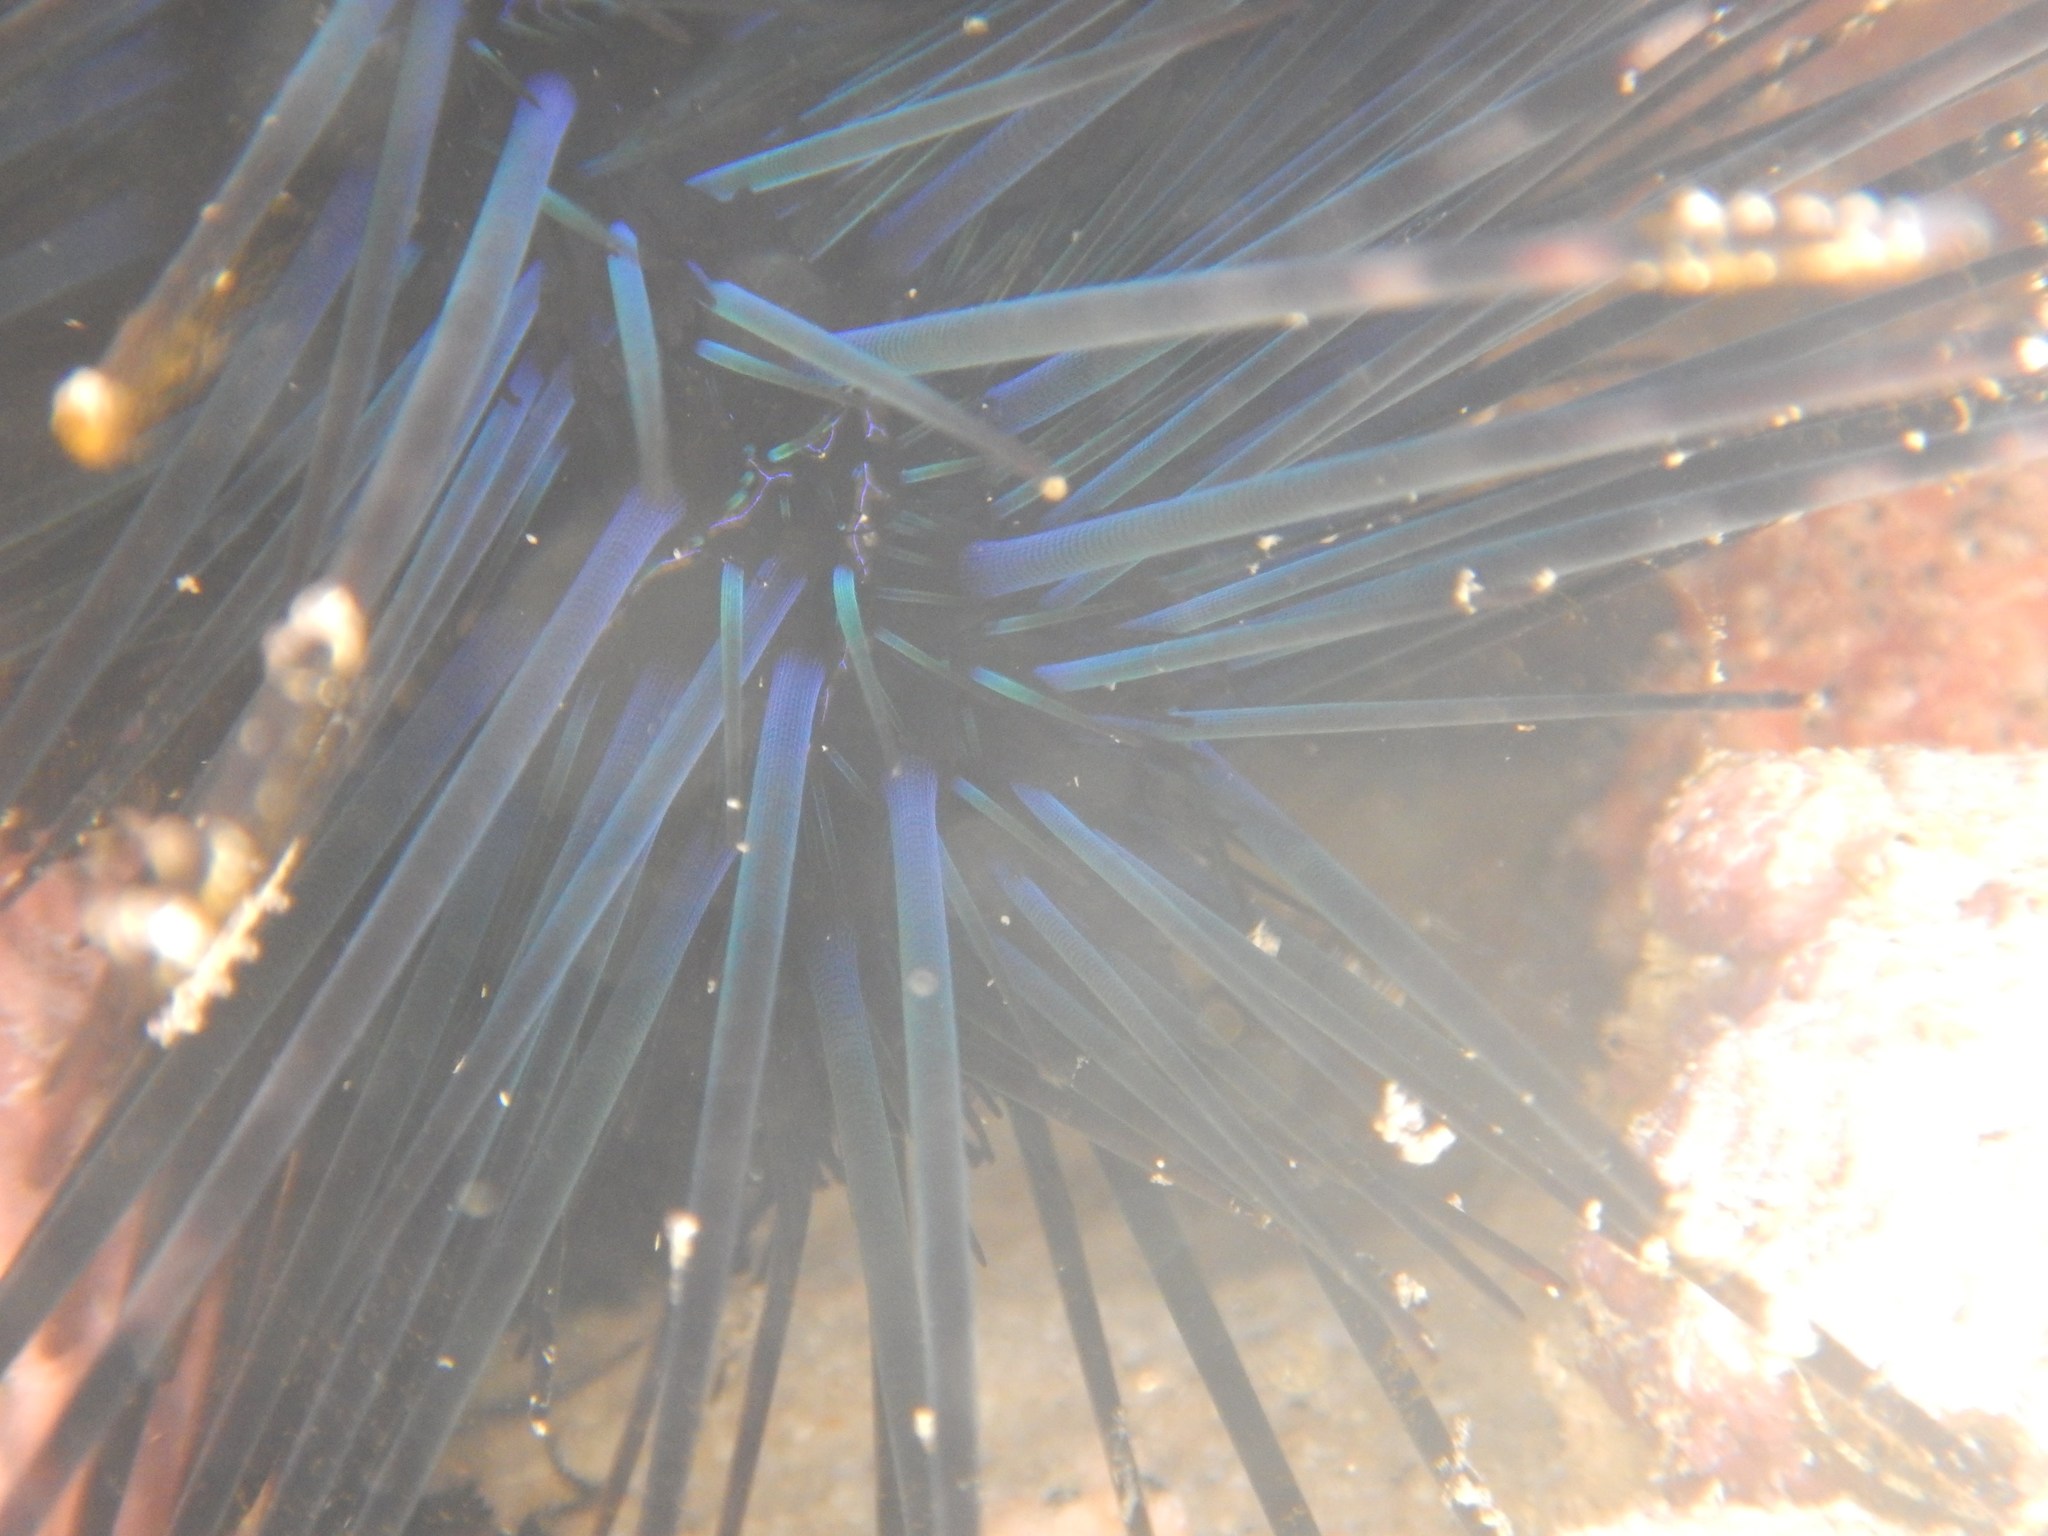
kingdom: Animalia
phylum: Echinodermata
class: Echinoidea
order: Diadematoida
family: Diadematidae
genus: Diadema
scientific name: Diadema mexicanum
